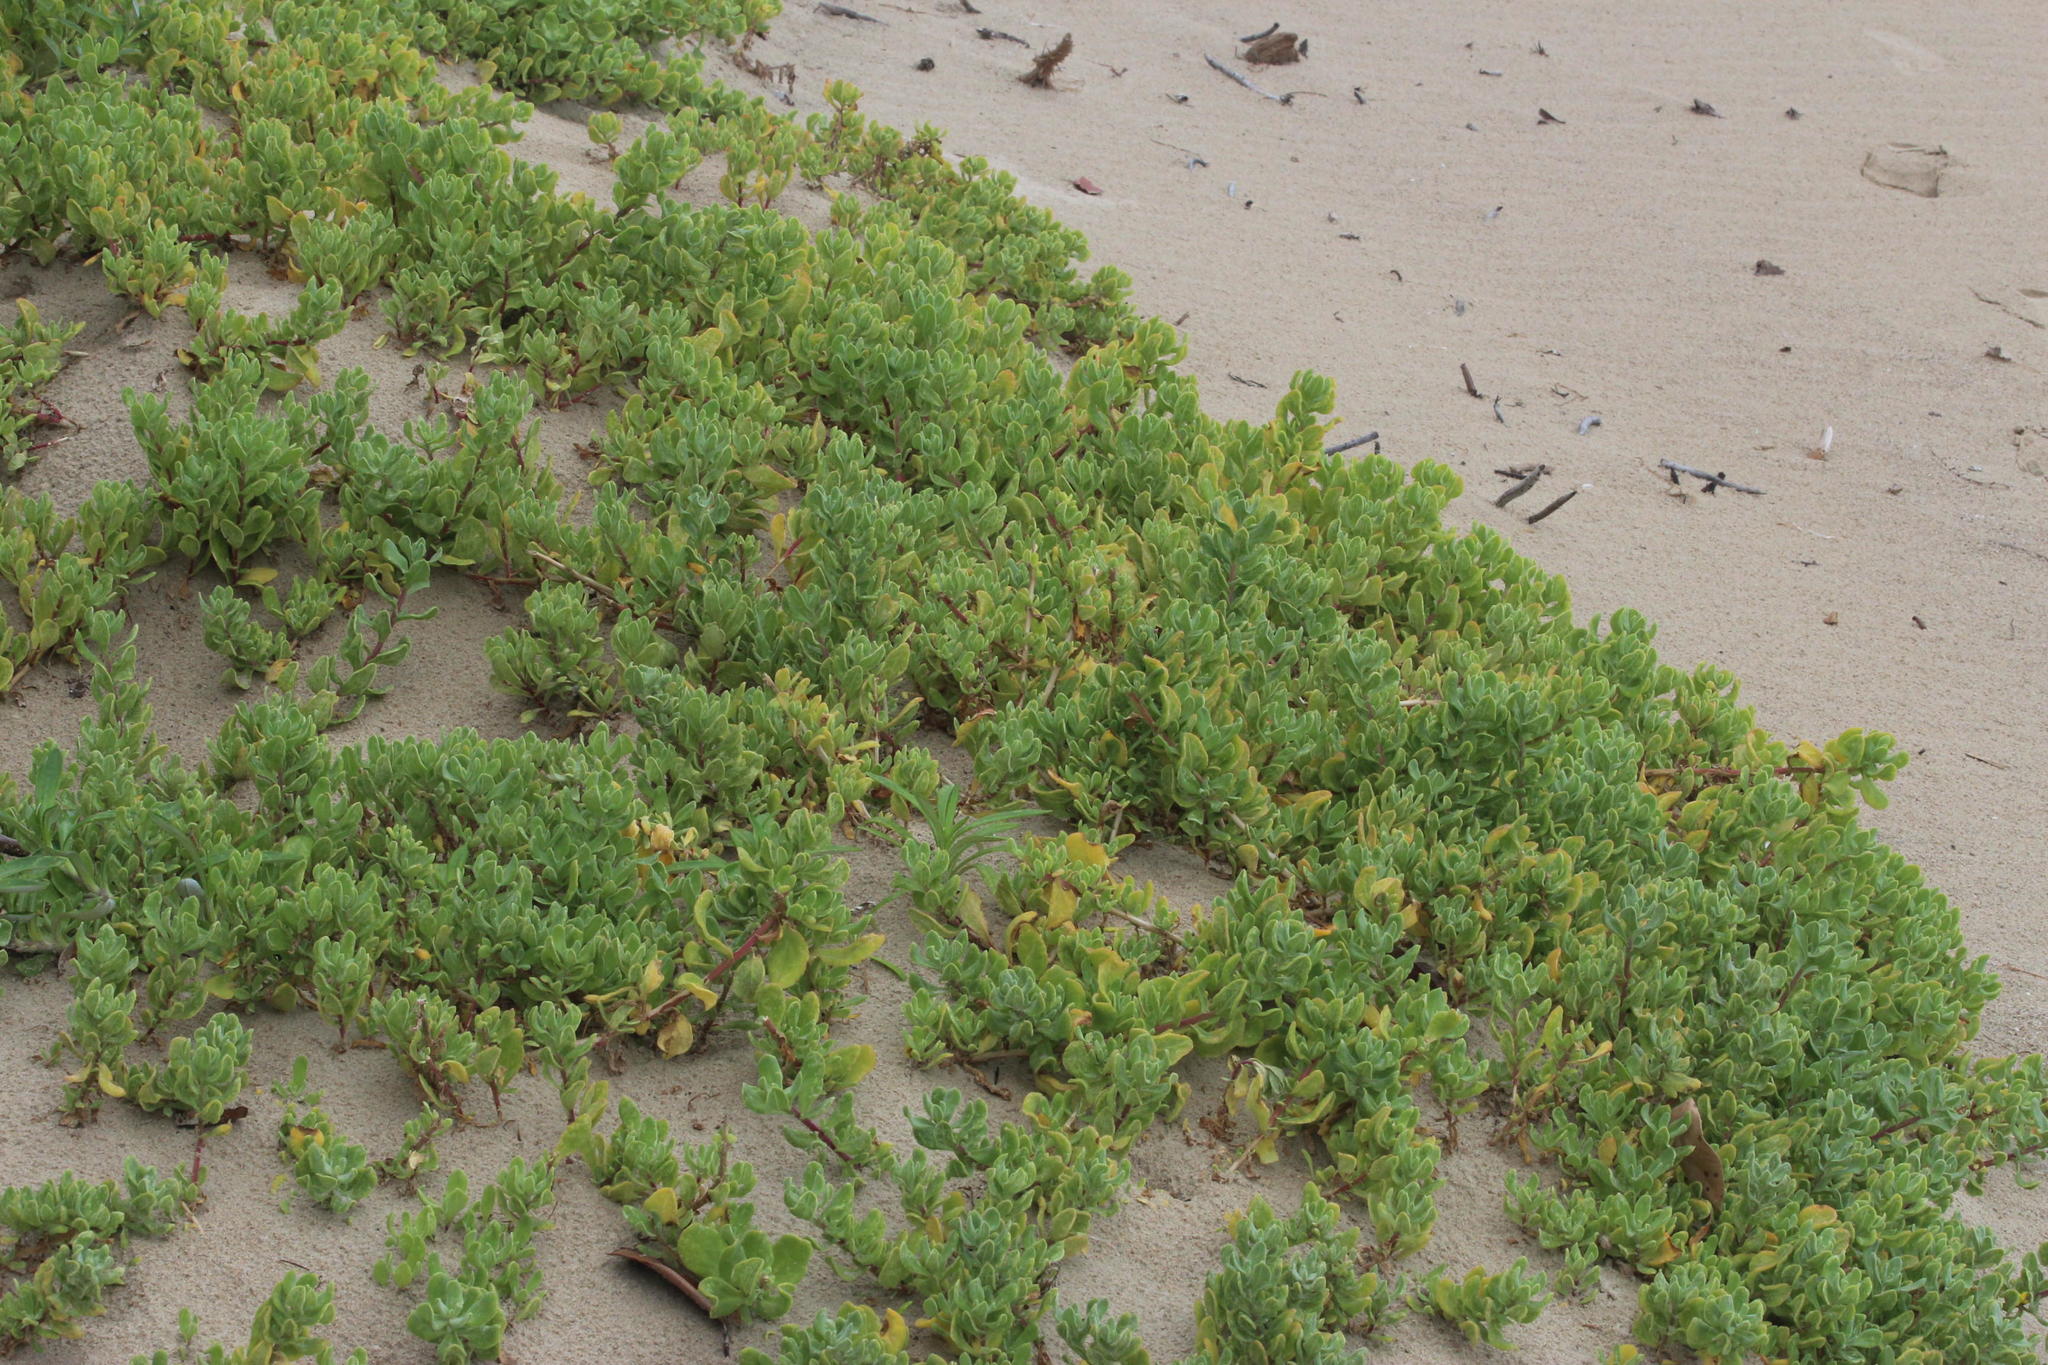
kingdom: Plantae
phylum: Tracheophyta
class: Magnoliopsida
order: Asterales
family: Asteraceae
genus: Dimorphotheca
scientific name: Dimorphotheca fruticosa
